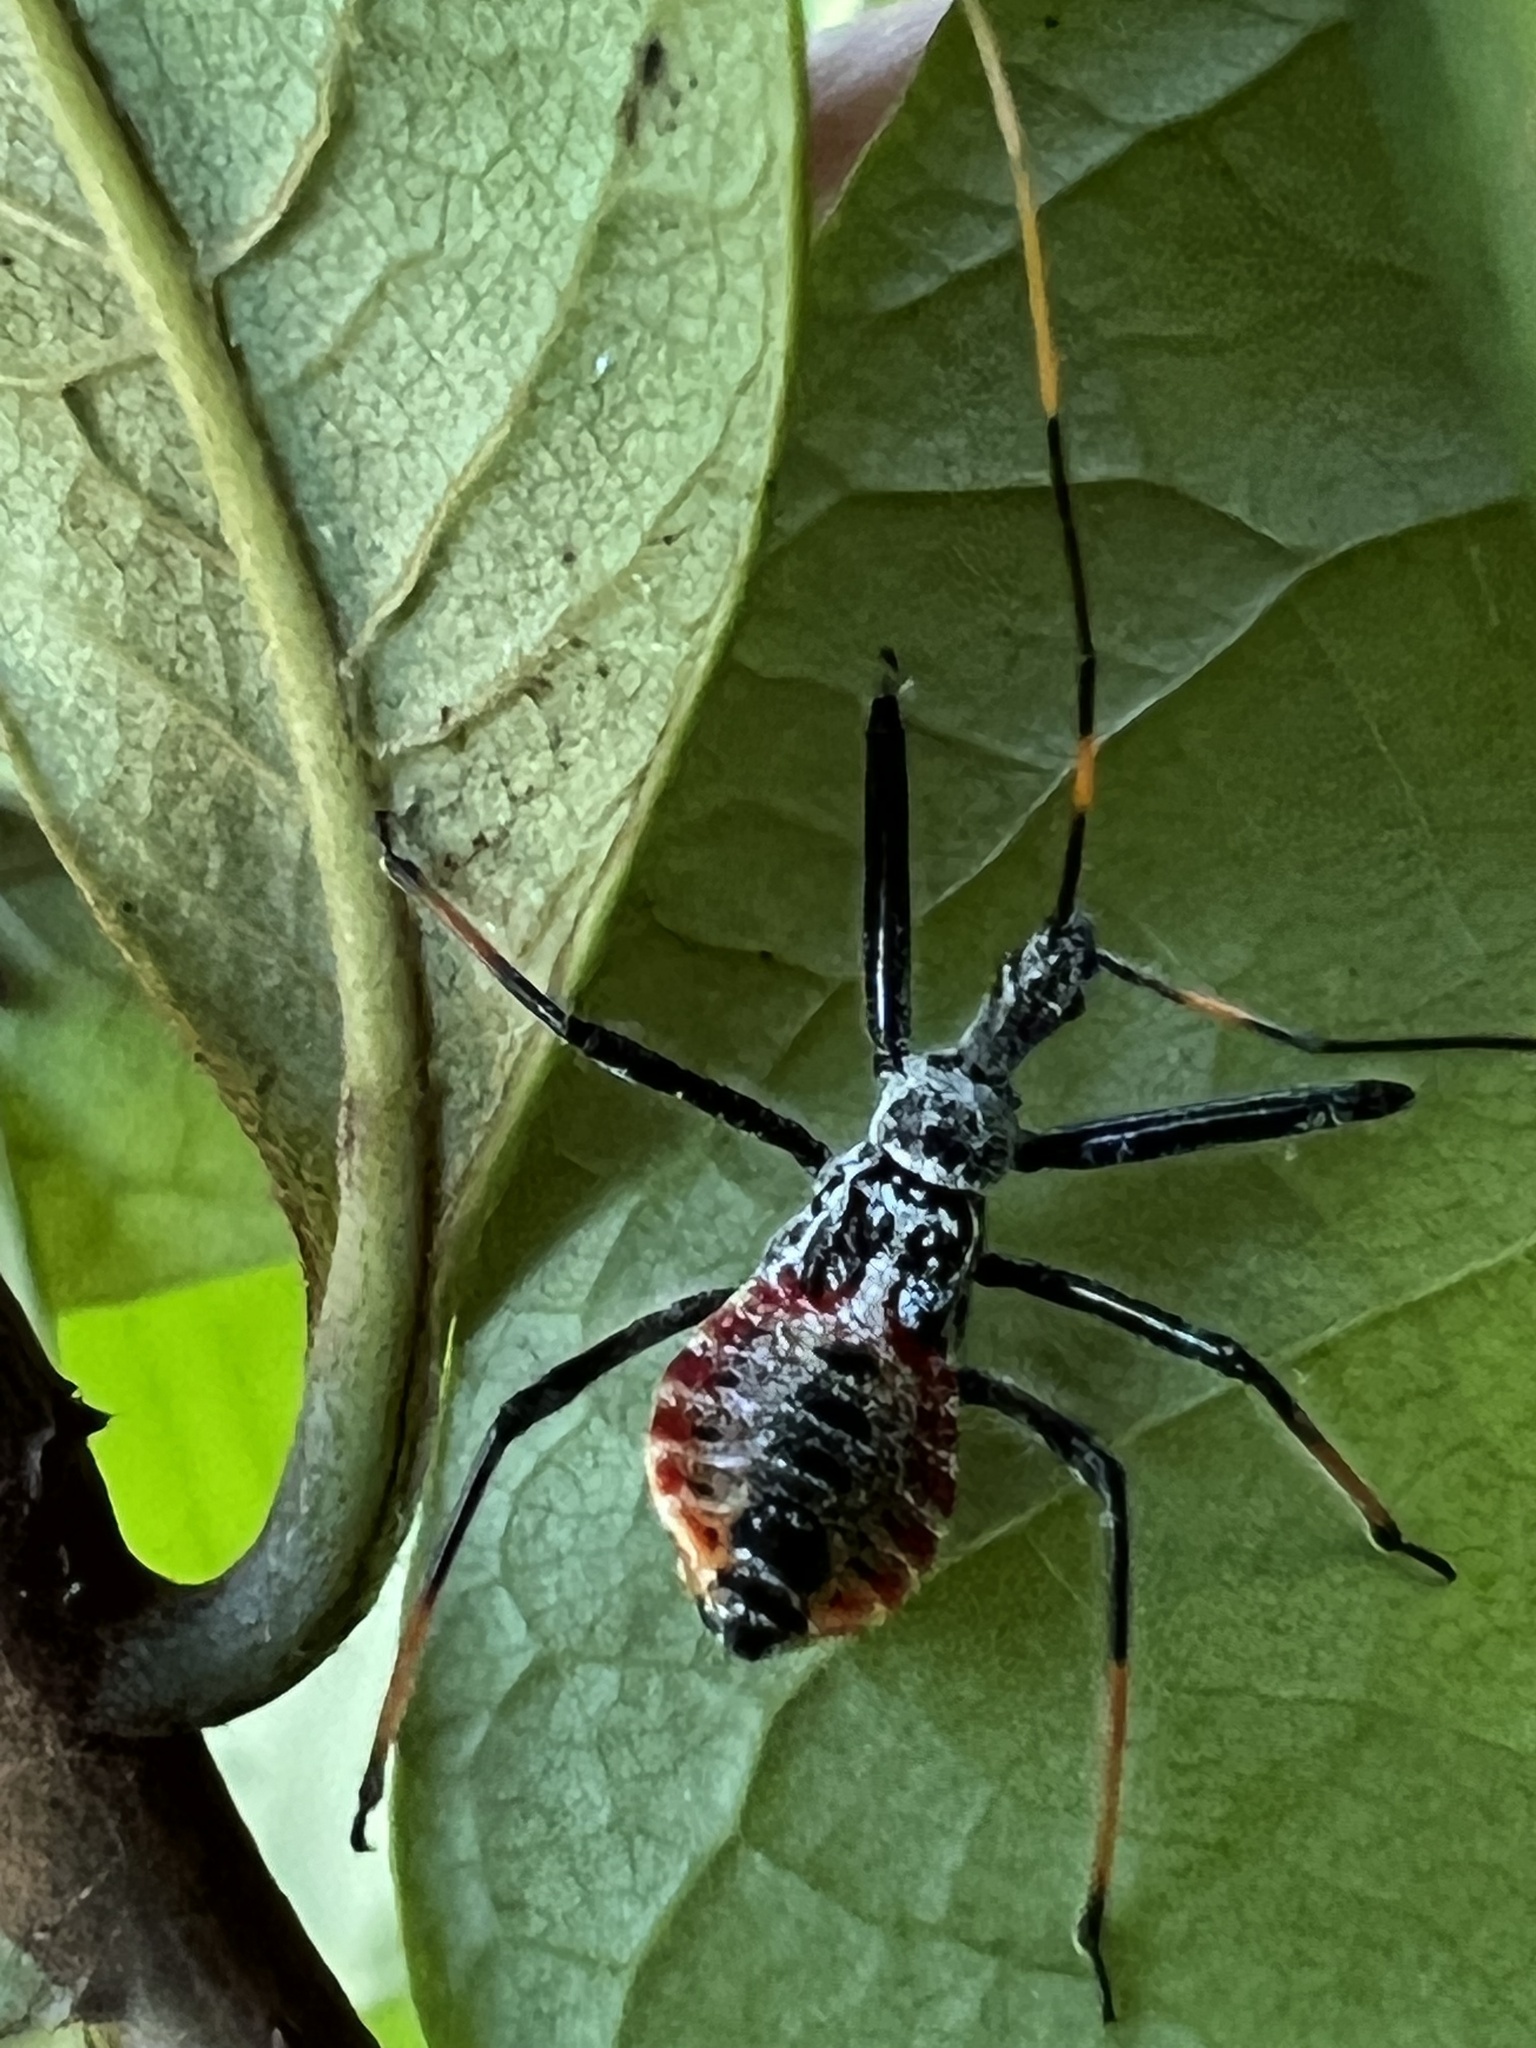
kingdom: Animalia
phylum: Arthropoda
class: Insecta
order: Hemiptera
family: Reduviidae
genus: Arilus
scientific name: Arilus cristatus
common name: North american wheel bug
